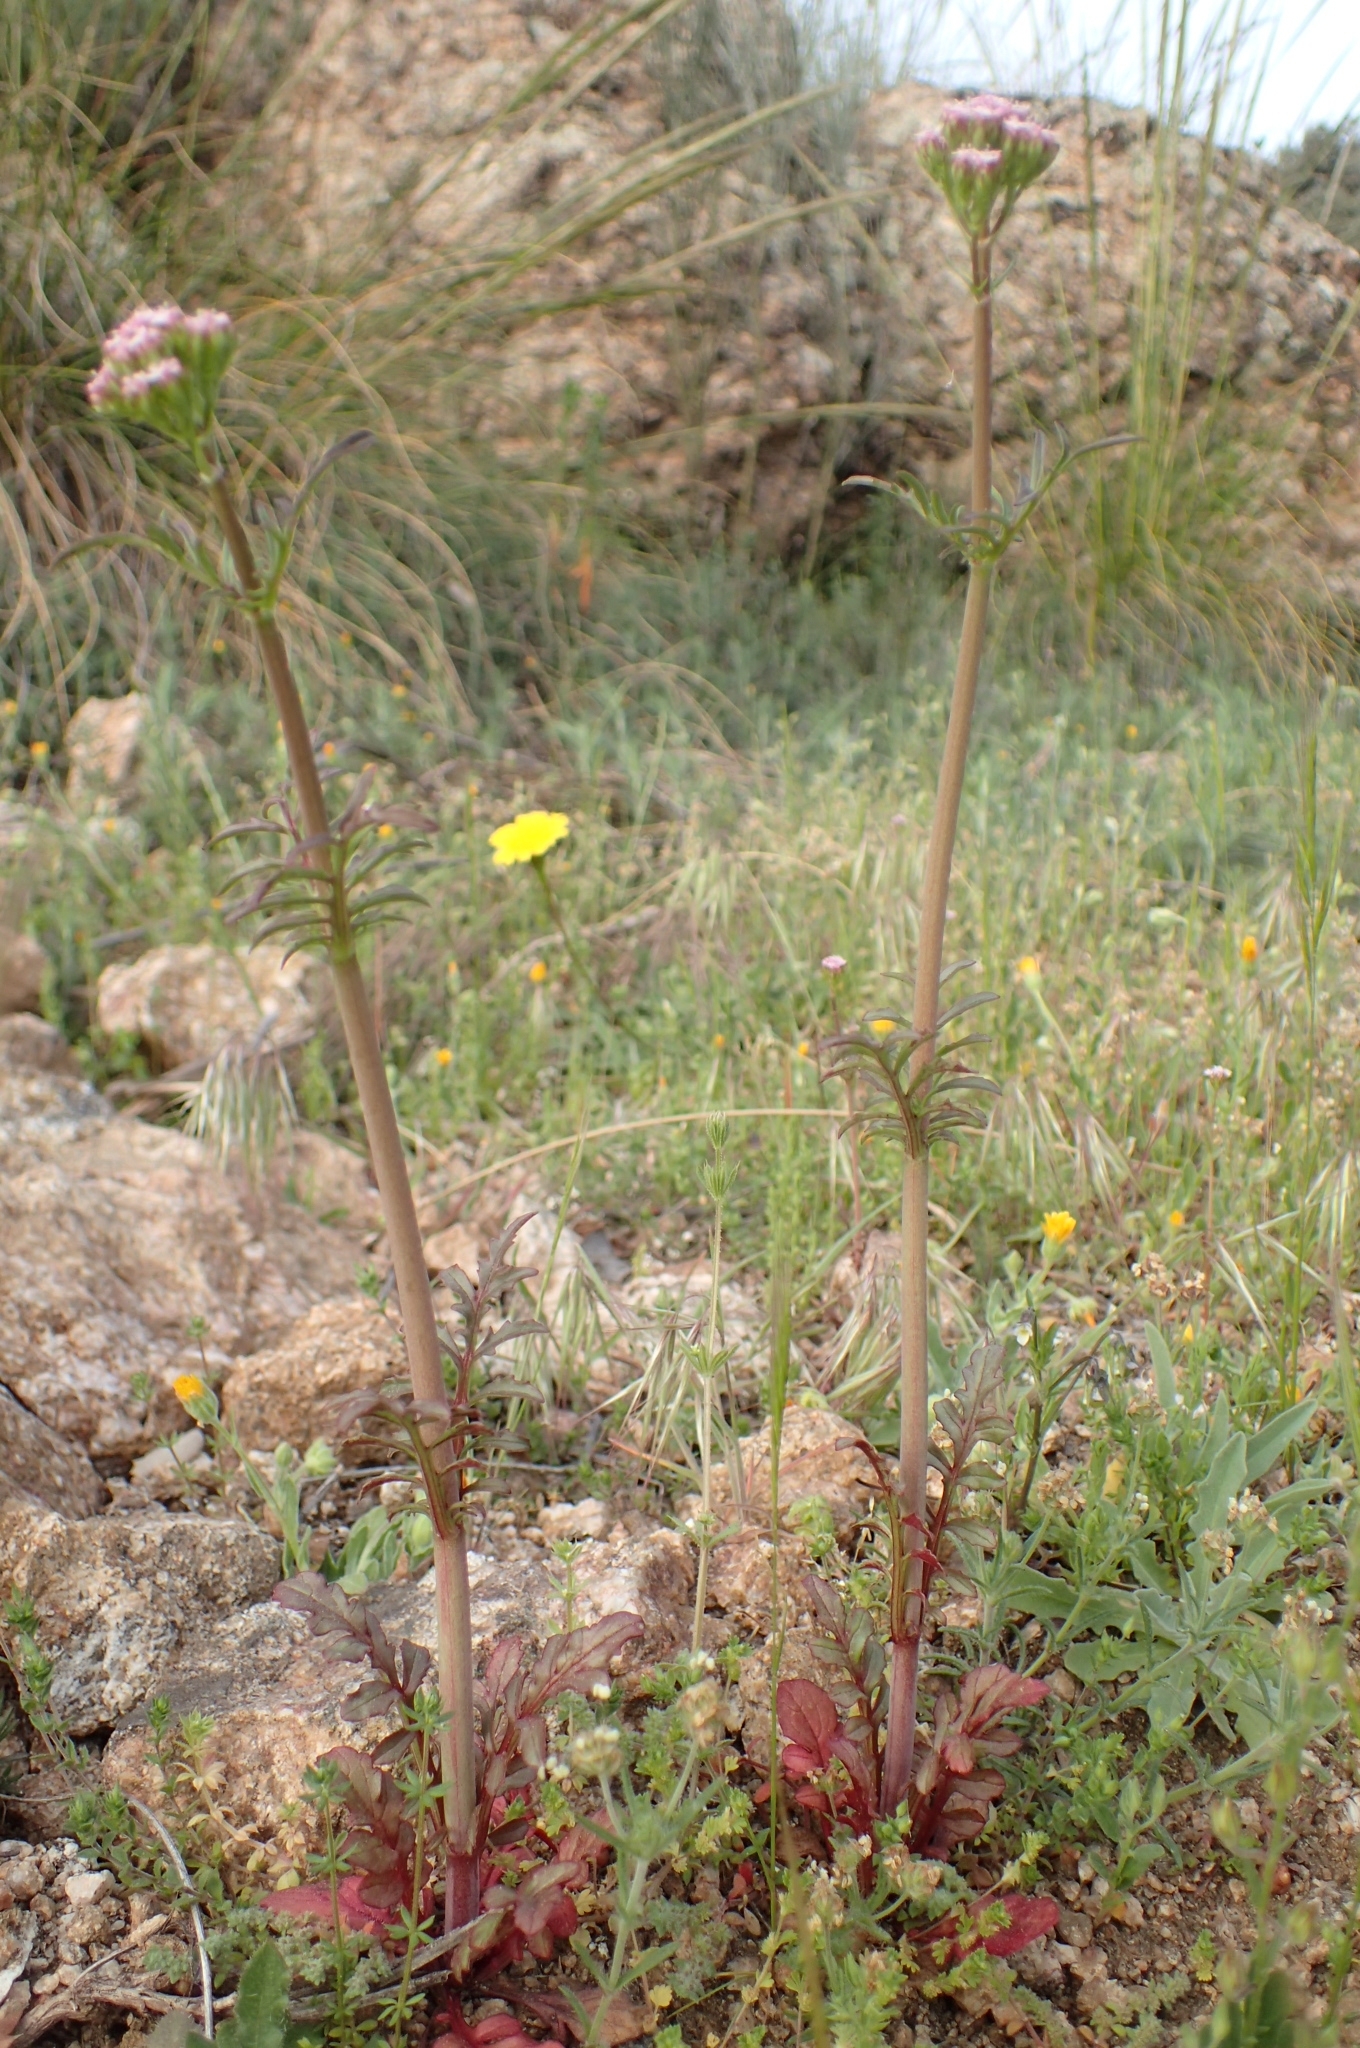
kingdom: Plantae
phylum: Tracheophyta
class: Magnoliopsida
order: Dipsacales
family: Caprifoliaceae
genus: Centranthus
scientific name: Centranthus calcitrapae
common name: Annual valerian
